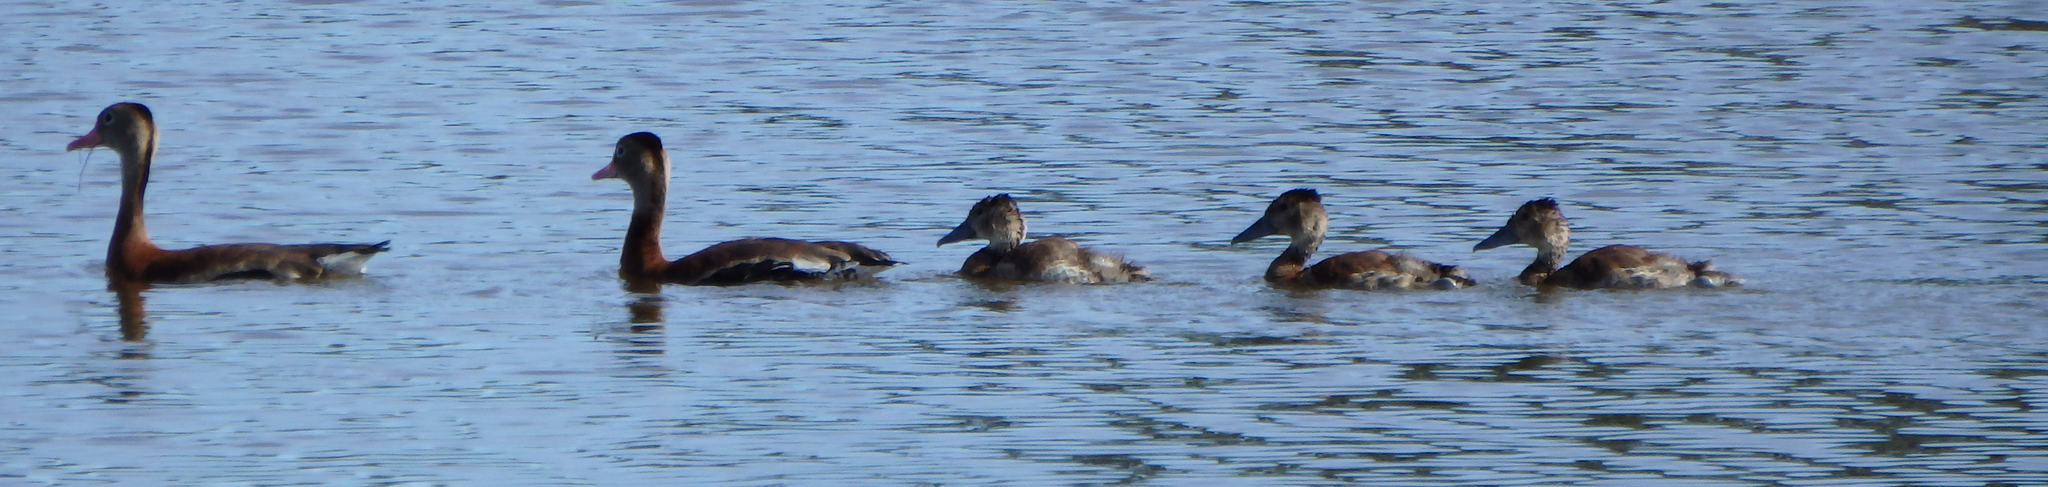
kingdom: Animalia
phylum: Chordata
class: Aves
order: Anseriformes
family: Anatidae
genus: Dendrocygna
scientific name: Dendrocygna autumnalis
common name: Black-bellied whistling duck
